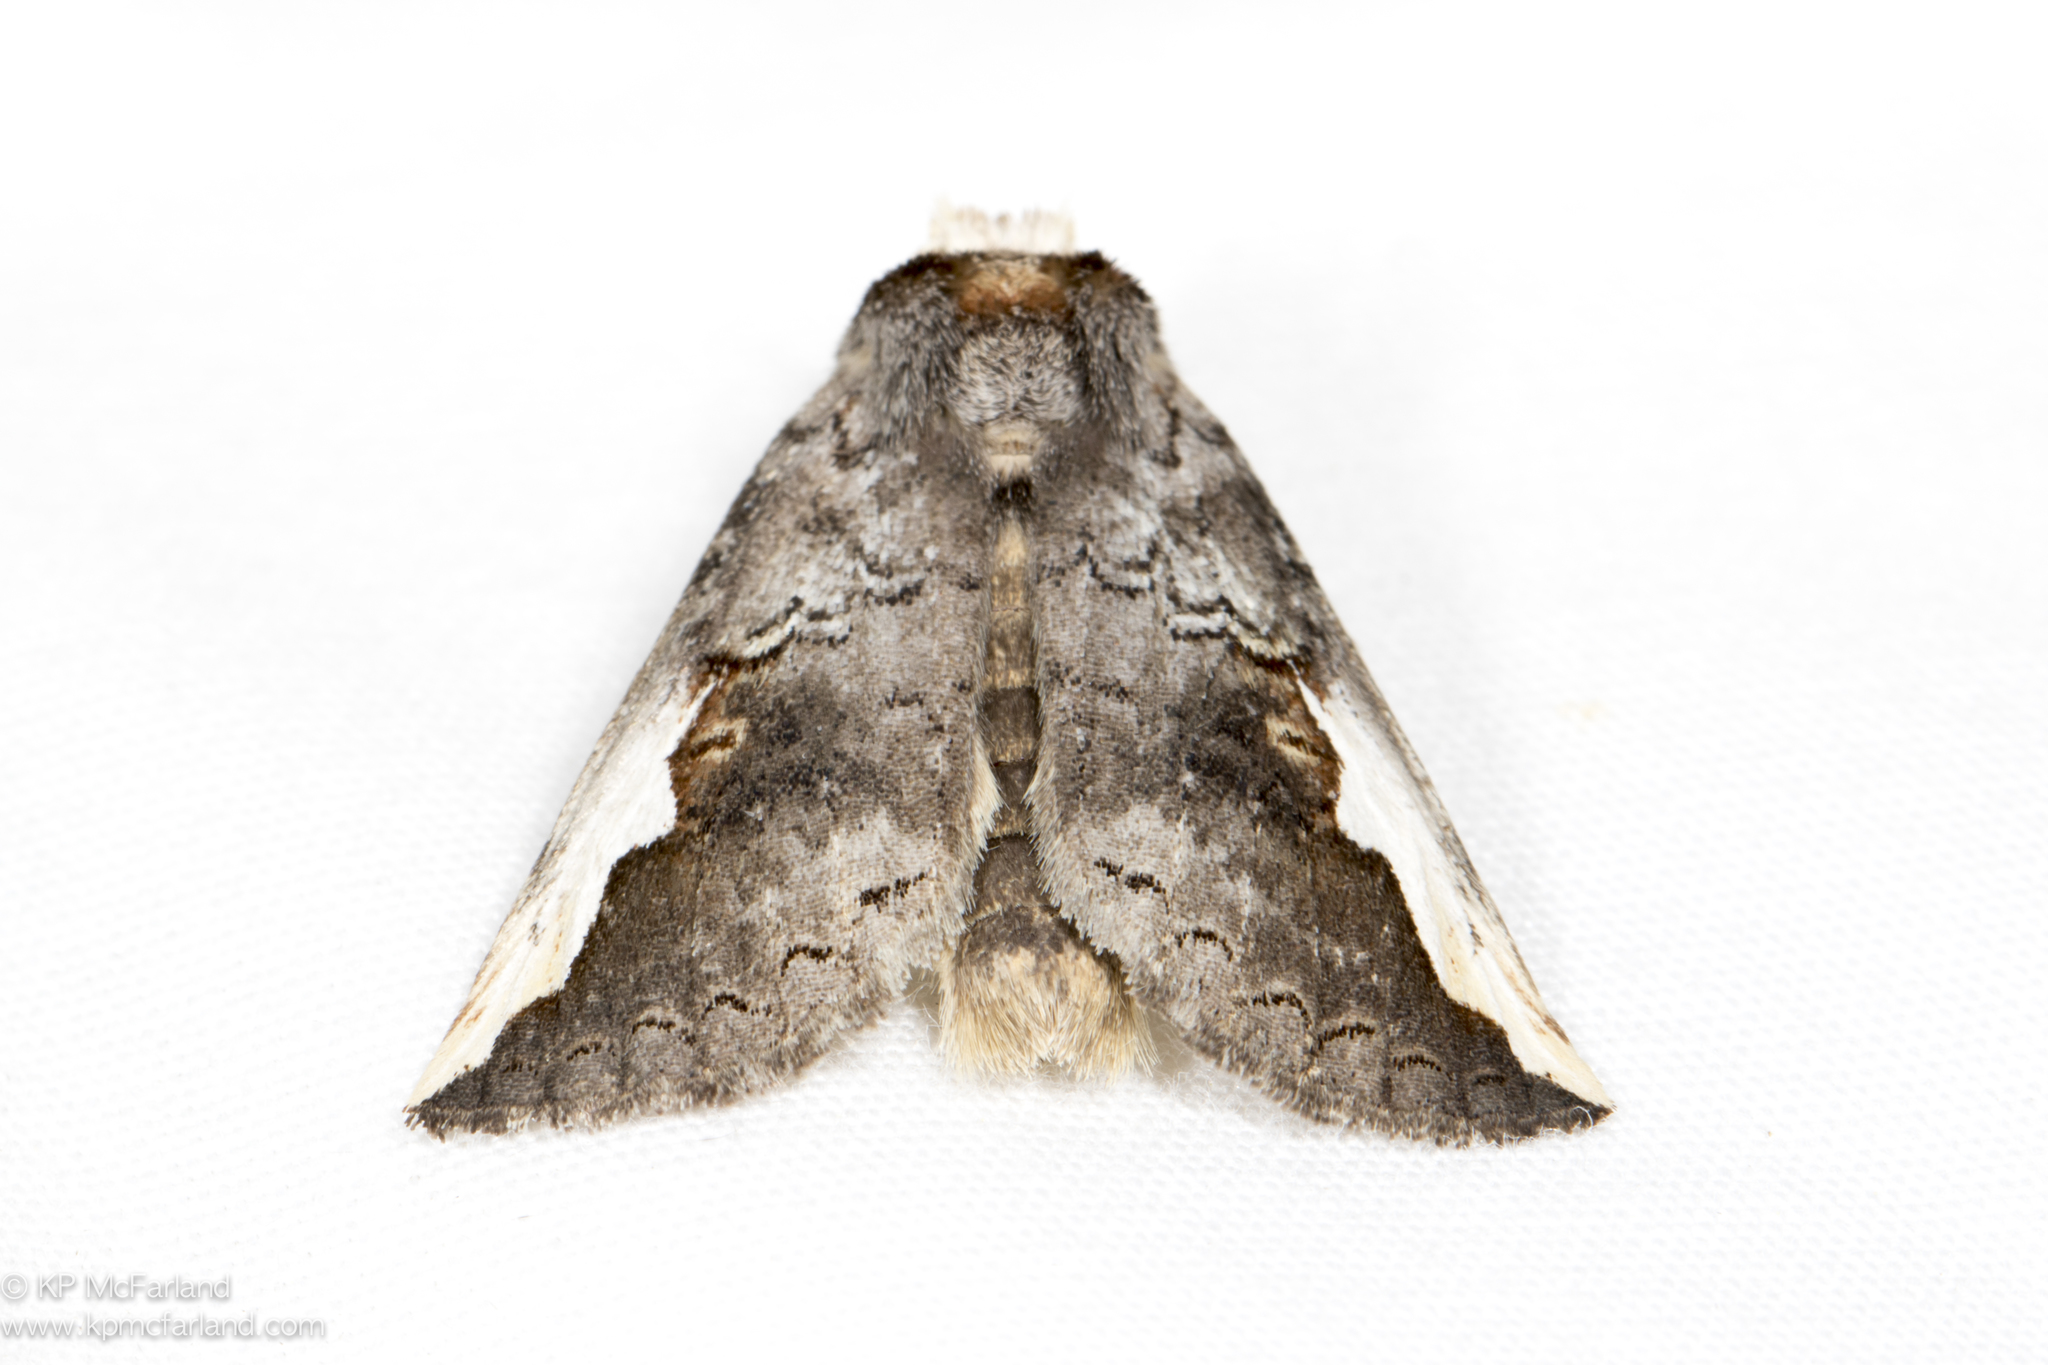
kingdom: Animalia
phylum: Arthropoda
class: Insecta
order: Lepidoptera
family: Notodontidae
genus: Symmerista
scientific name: Symmerista
